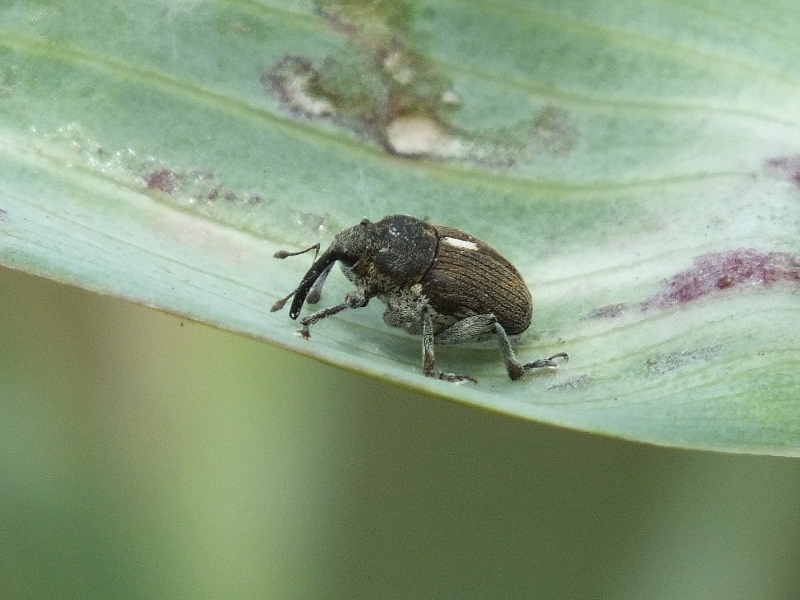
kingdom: Animalia
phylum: Arthropoda
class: Insecta
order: Coleoptera
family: Curculionidae
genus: Glocianus
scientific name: Glocianus herbsti
